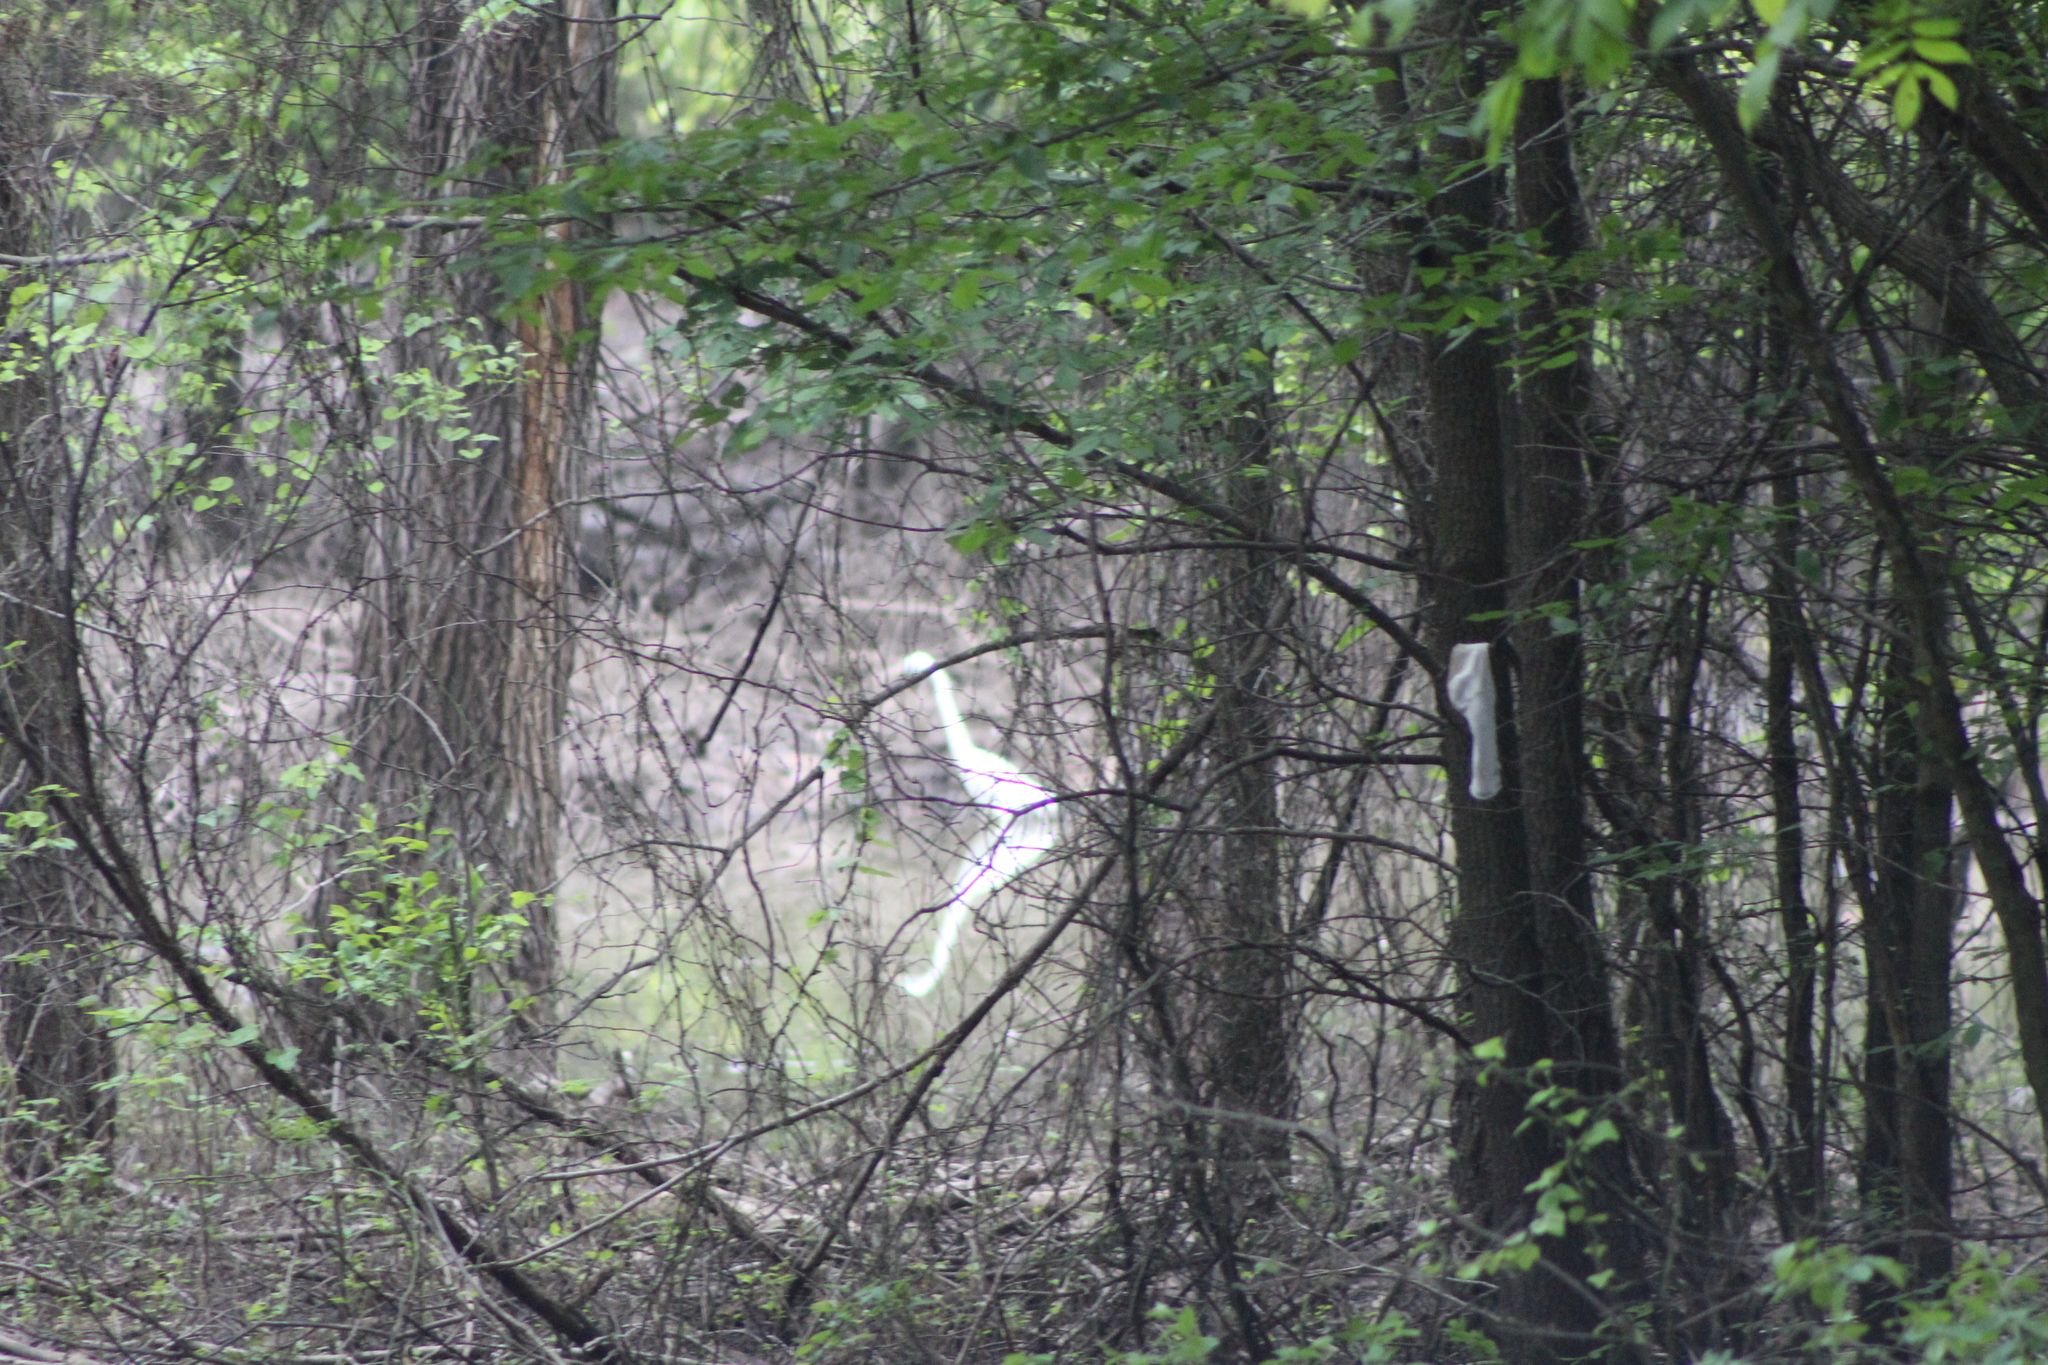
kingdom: Animalia
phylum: Chordata
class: Aves
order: Pelecaniformes
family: Ardeidae
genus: Ardea
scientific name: Ardea alba
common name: Great egret
